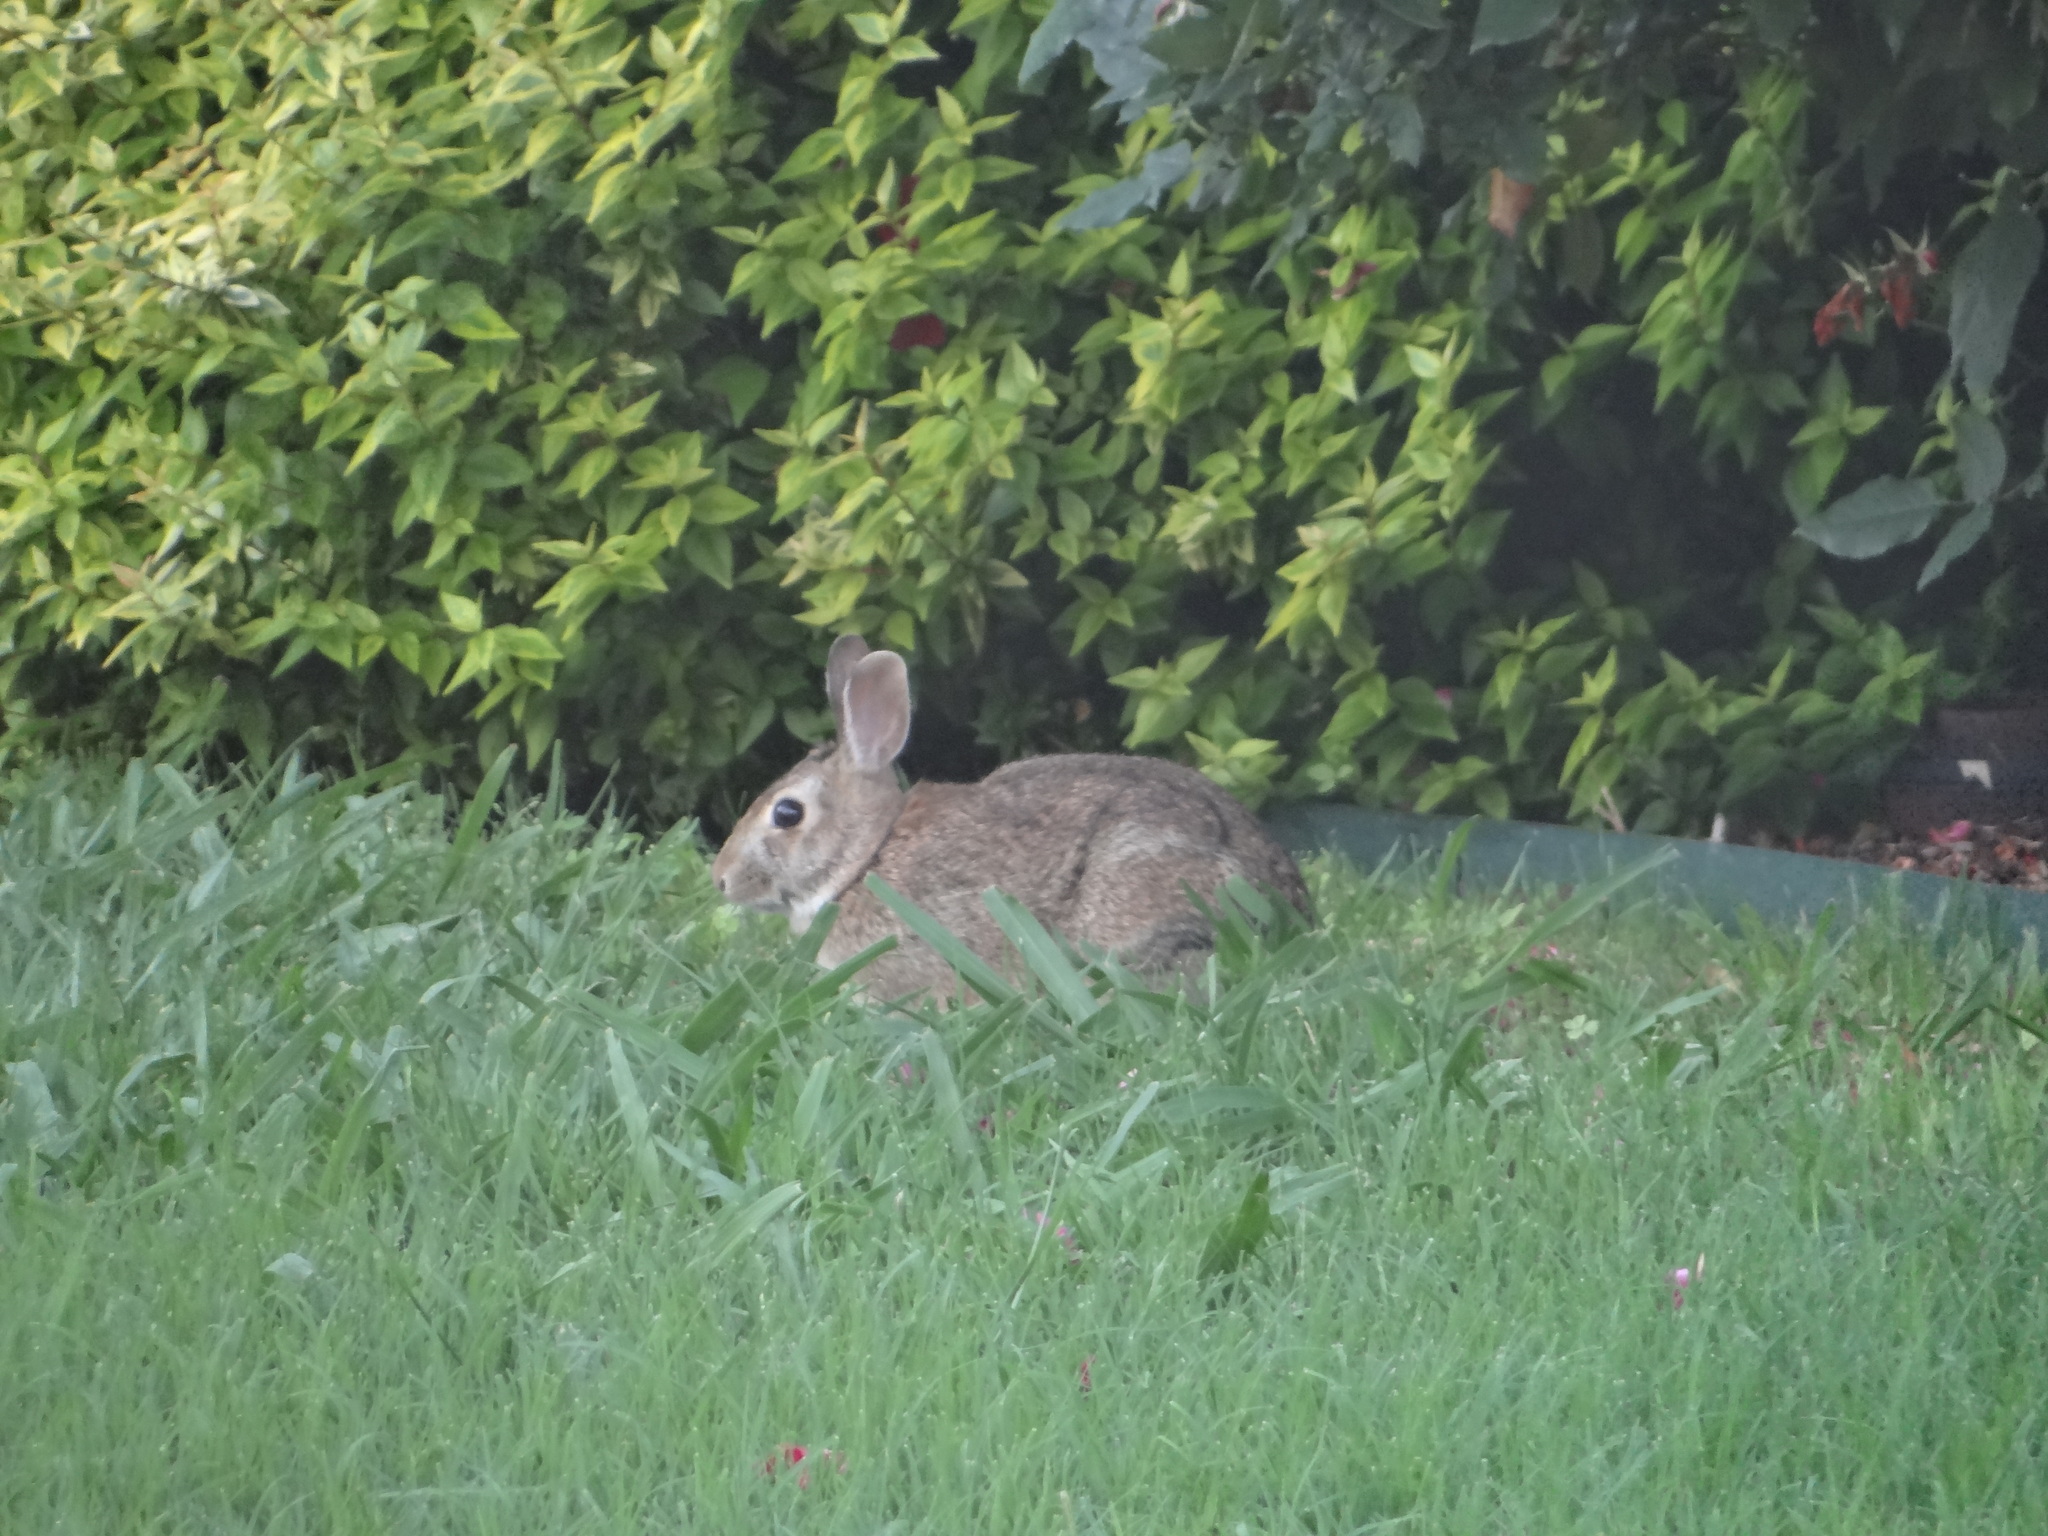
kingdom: Animalia
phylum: Chordata
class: Mammalia
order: Lagomorpha
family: Leporidae
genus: Sylvilagus
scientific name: Sylvilagus floridanus
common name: Eastern cottontail
